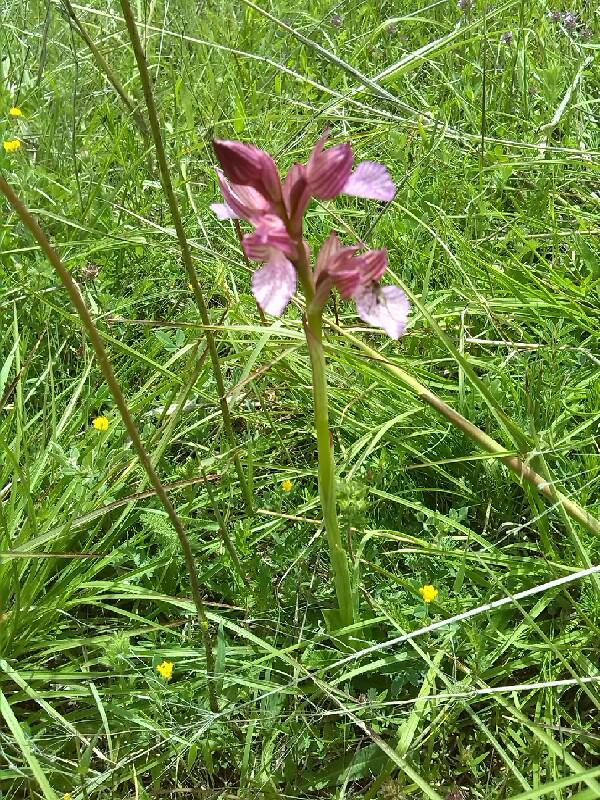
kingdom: Plantae
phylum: Tracheophyta
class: Liliopsida
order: Asparagales
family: Orchidaceae
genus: Anacamptis
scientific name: Anacamptis papilionacea
